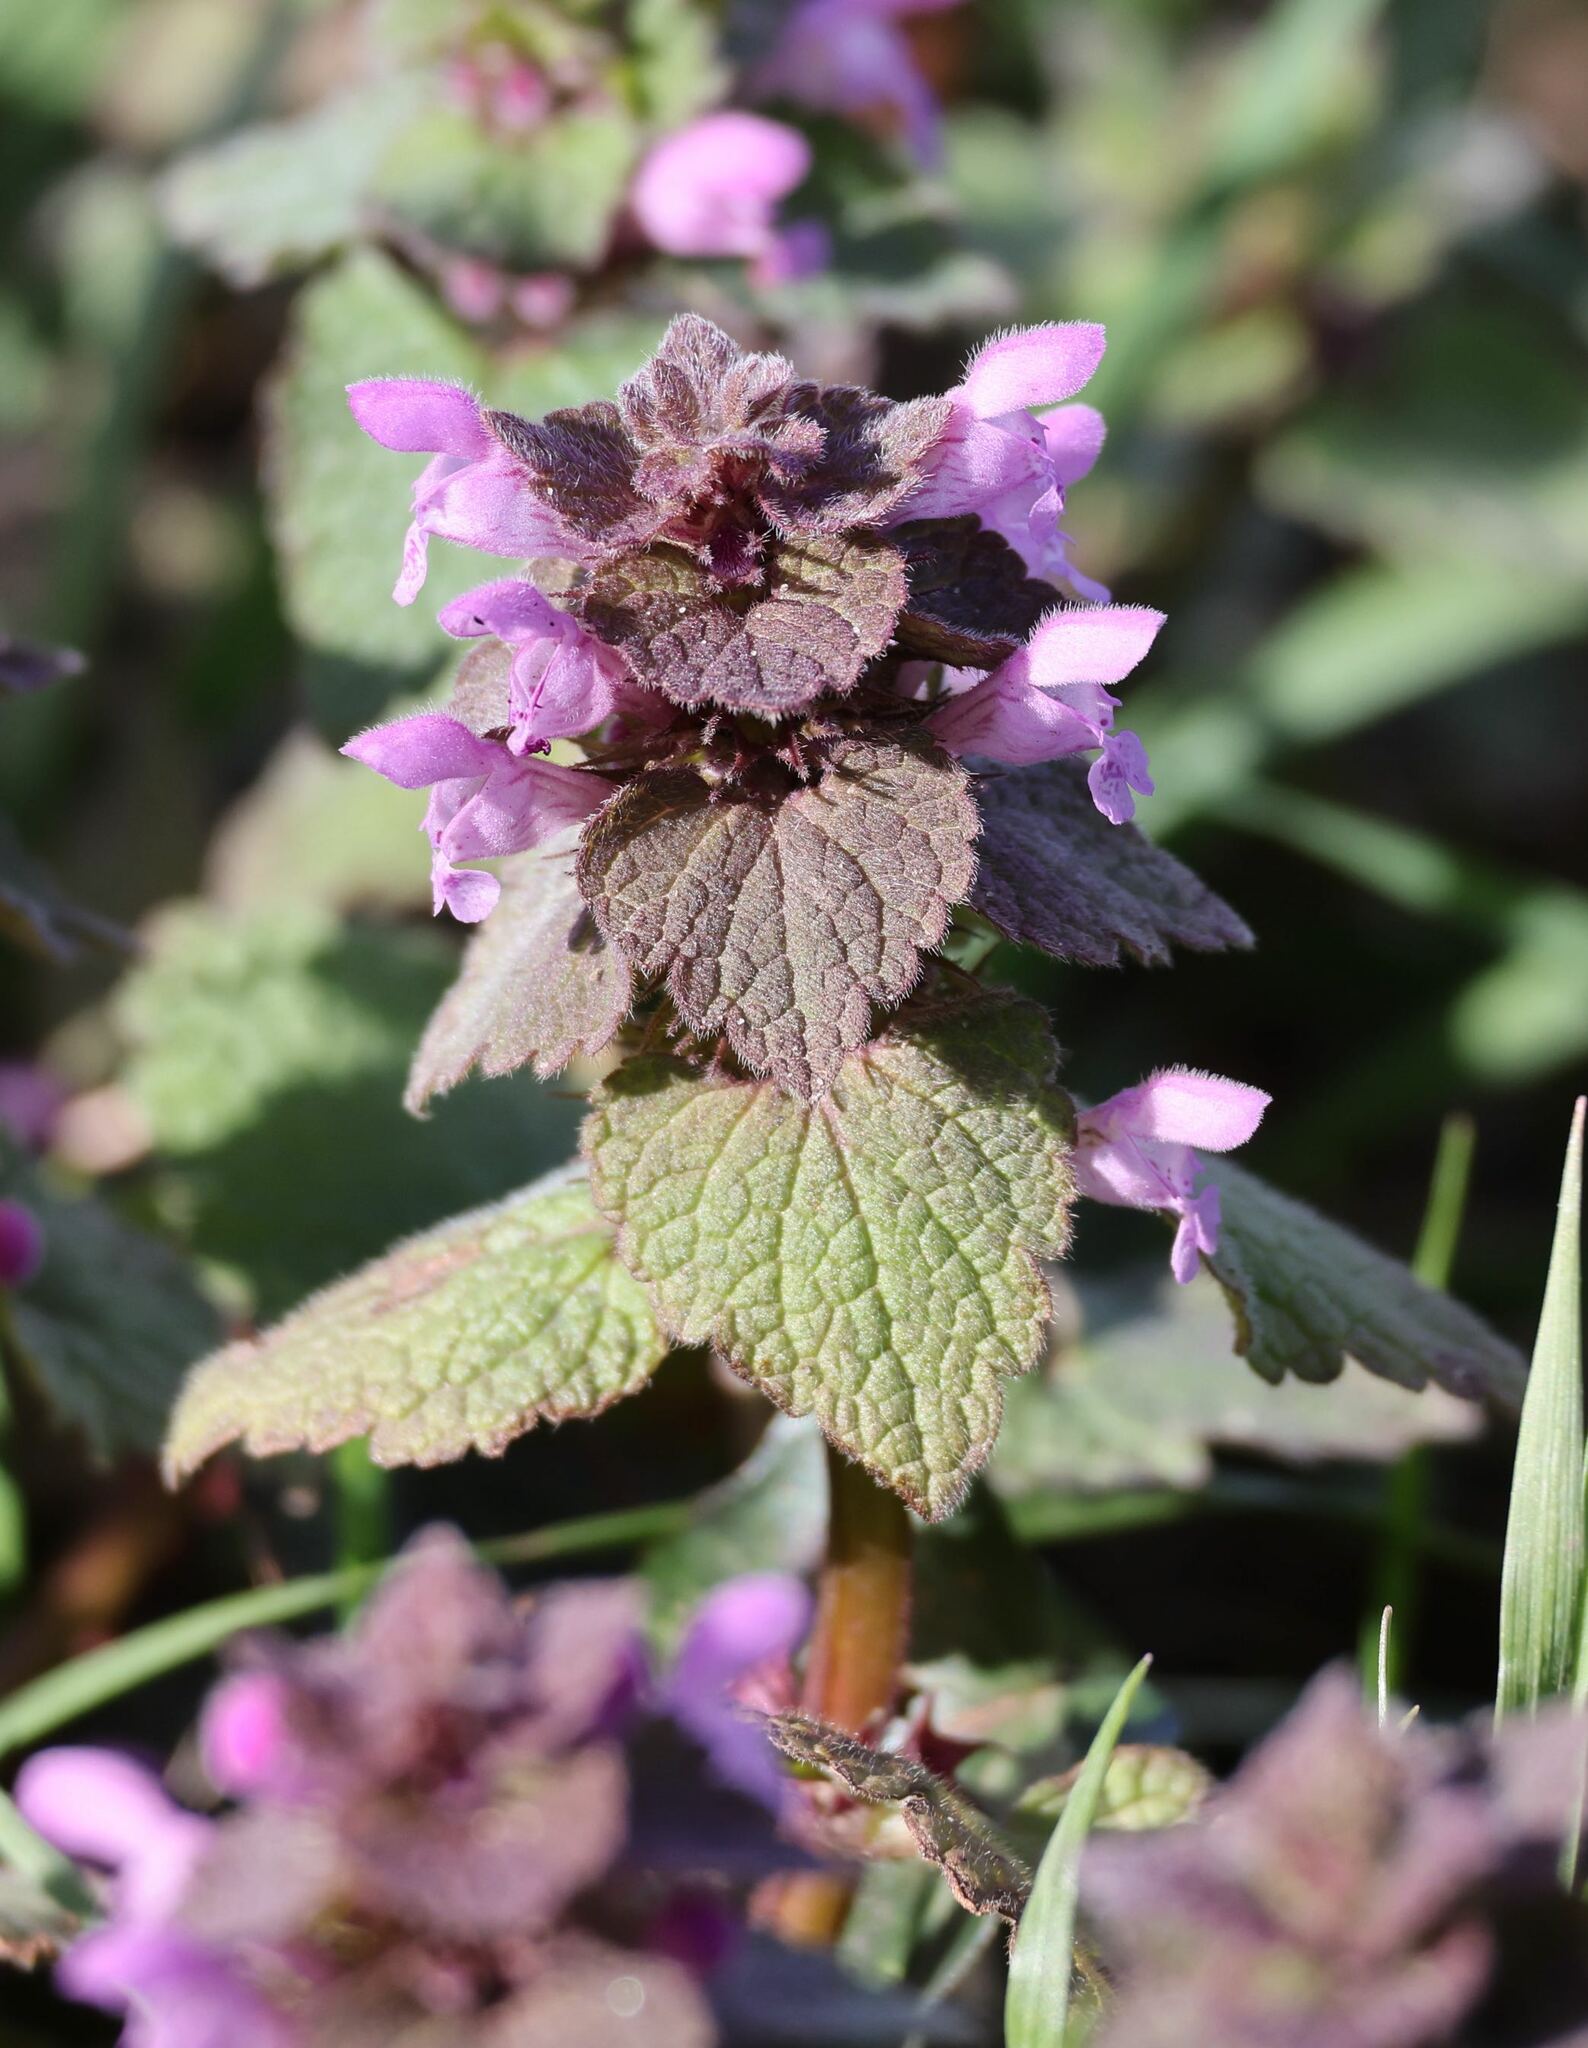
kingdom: Plantae
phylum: Tracheophyta
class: Magnoliopsida
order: Lamiales
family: Lamiaceae
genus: Lamium
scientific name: Lamium purpureum
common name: Red dead-nettle
